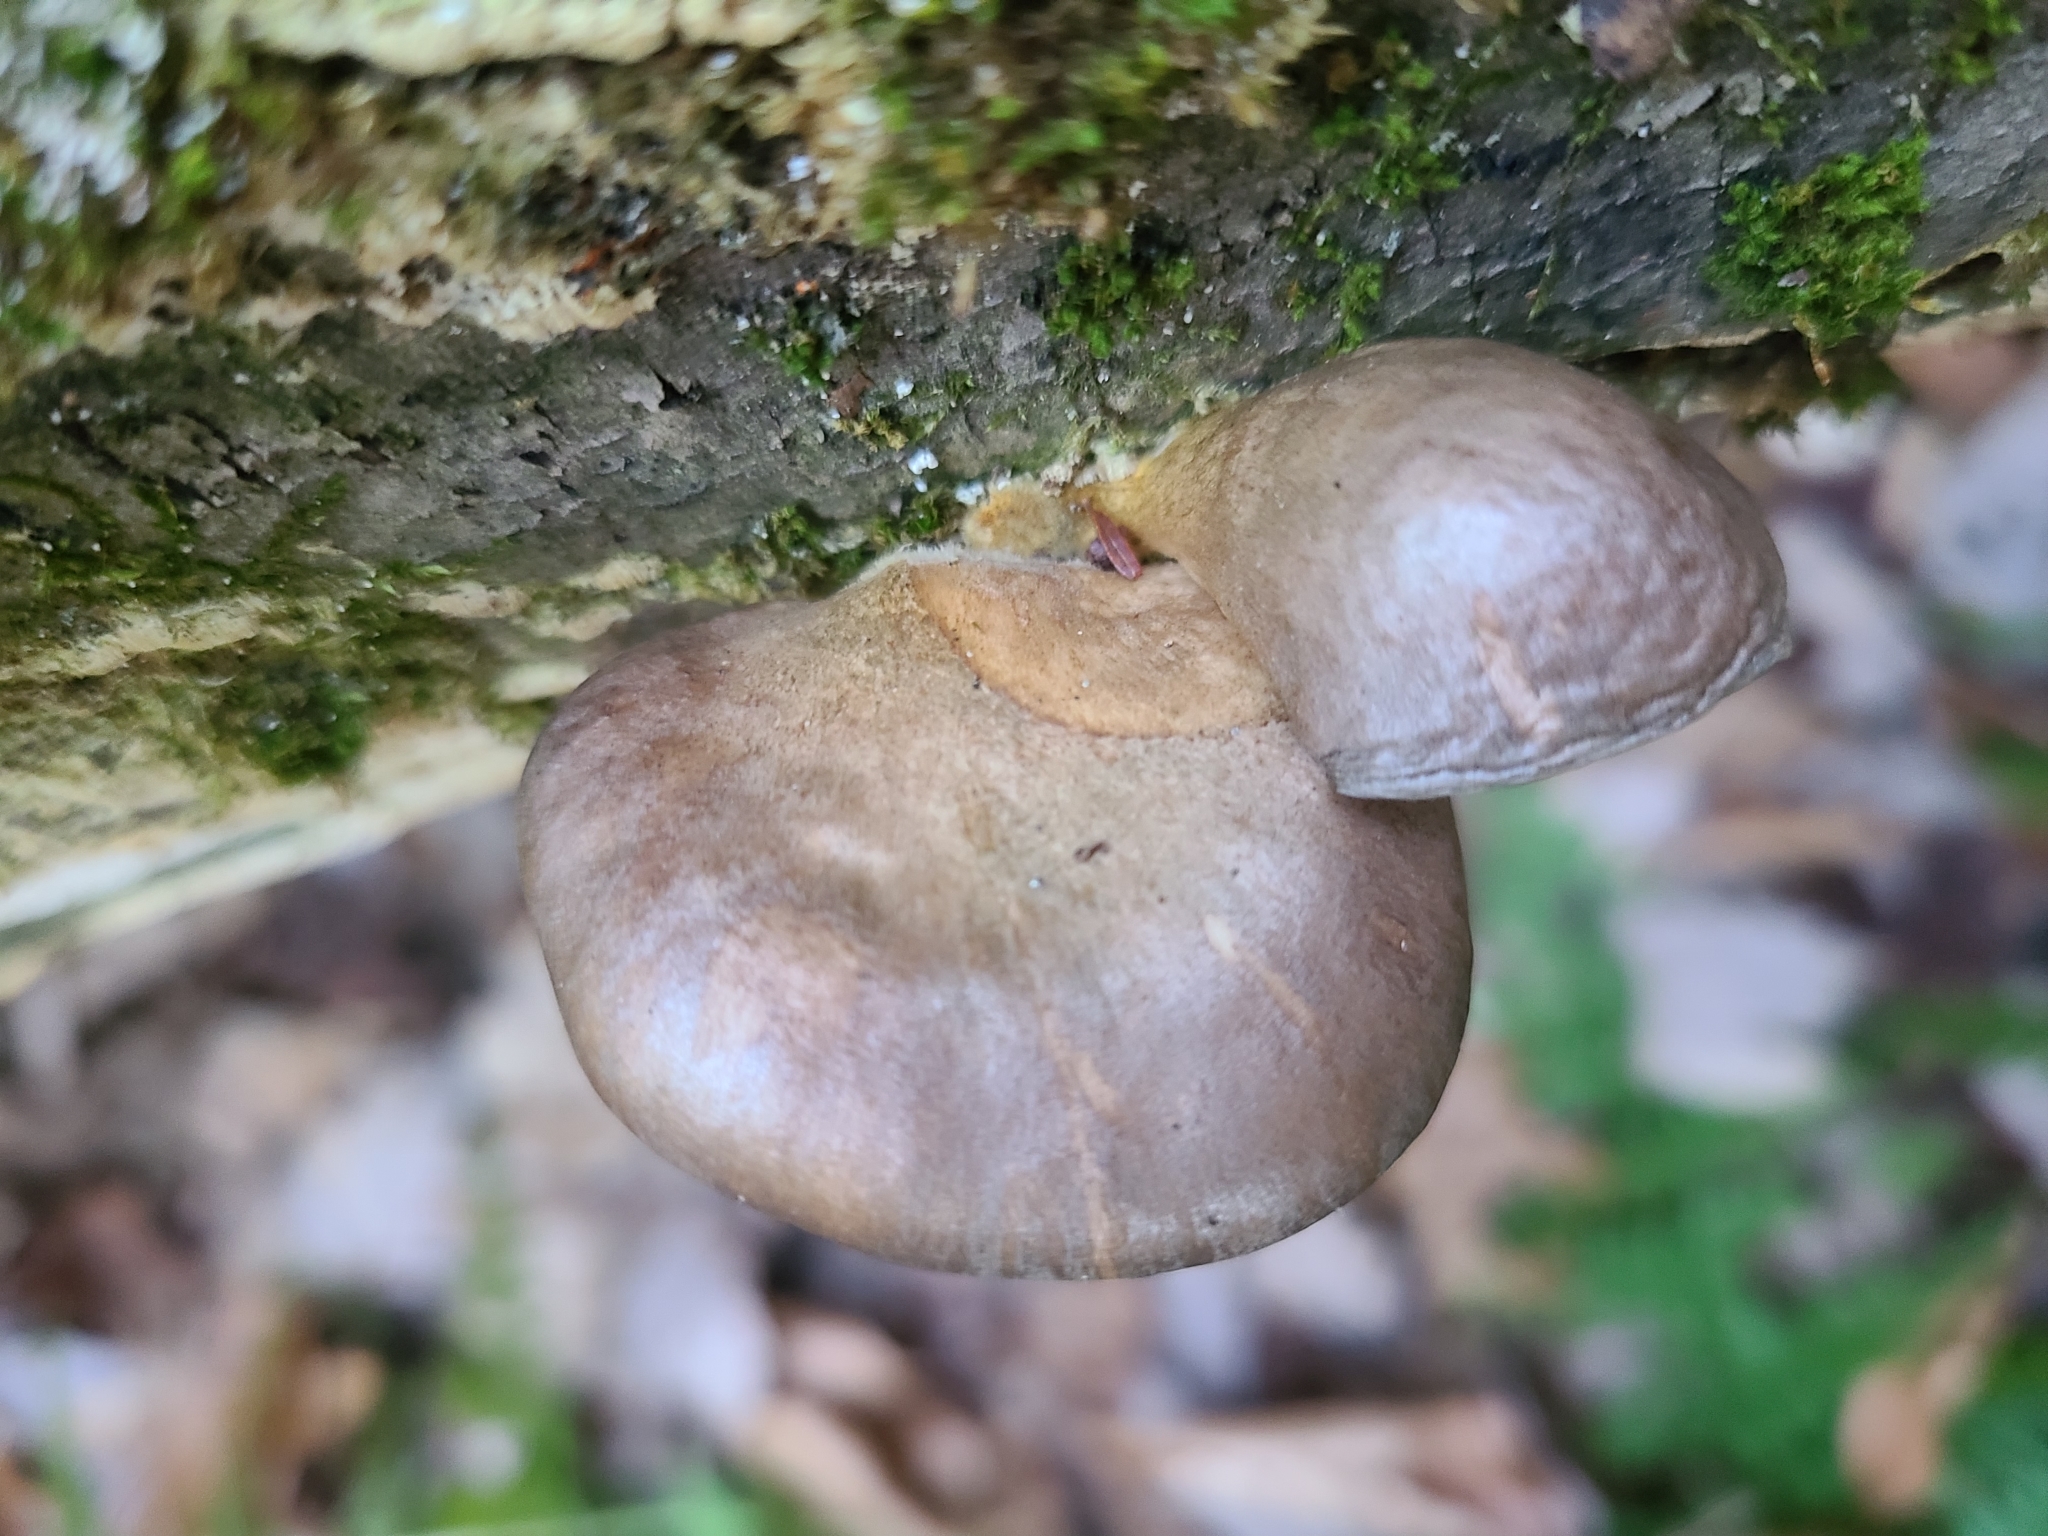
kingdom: Fungi
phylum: Basidiomycota
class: Agaricomycetes
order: Agaricales
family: Sarcomyxaceae
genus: Sarcomyxa
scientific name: Sarcomyxa serotina
